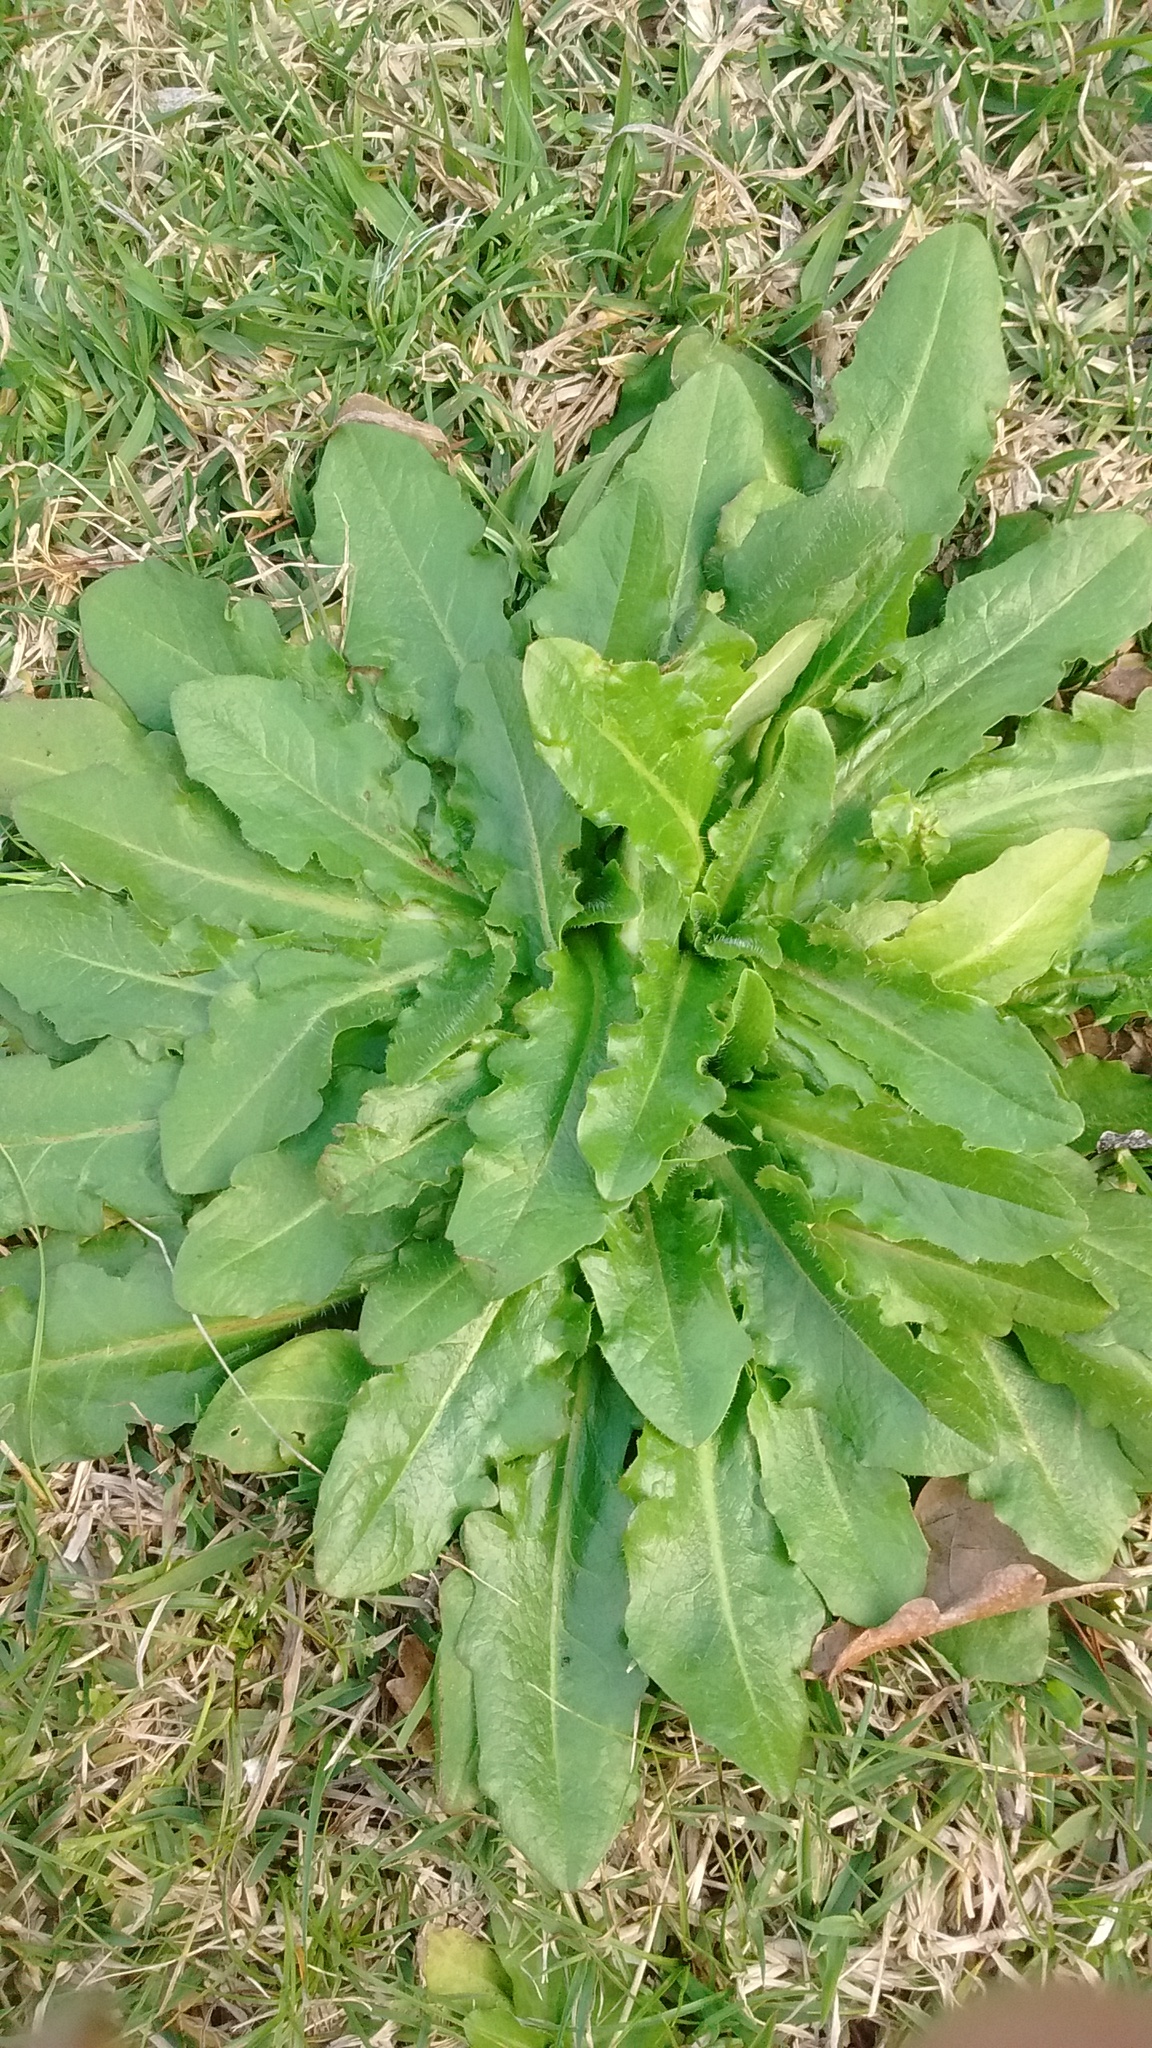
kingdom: Plantae
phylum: Tracheophyta
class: Magnoliopsida
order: Asterales
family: Asteraceae
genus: Hypochaeris
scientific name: Hypochaeris radicata
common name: Flatweed
